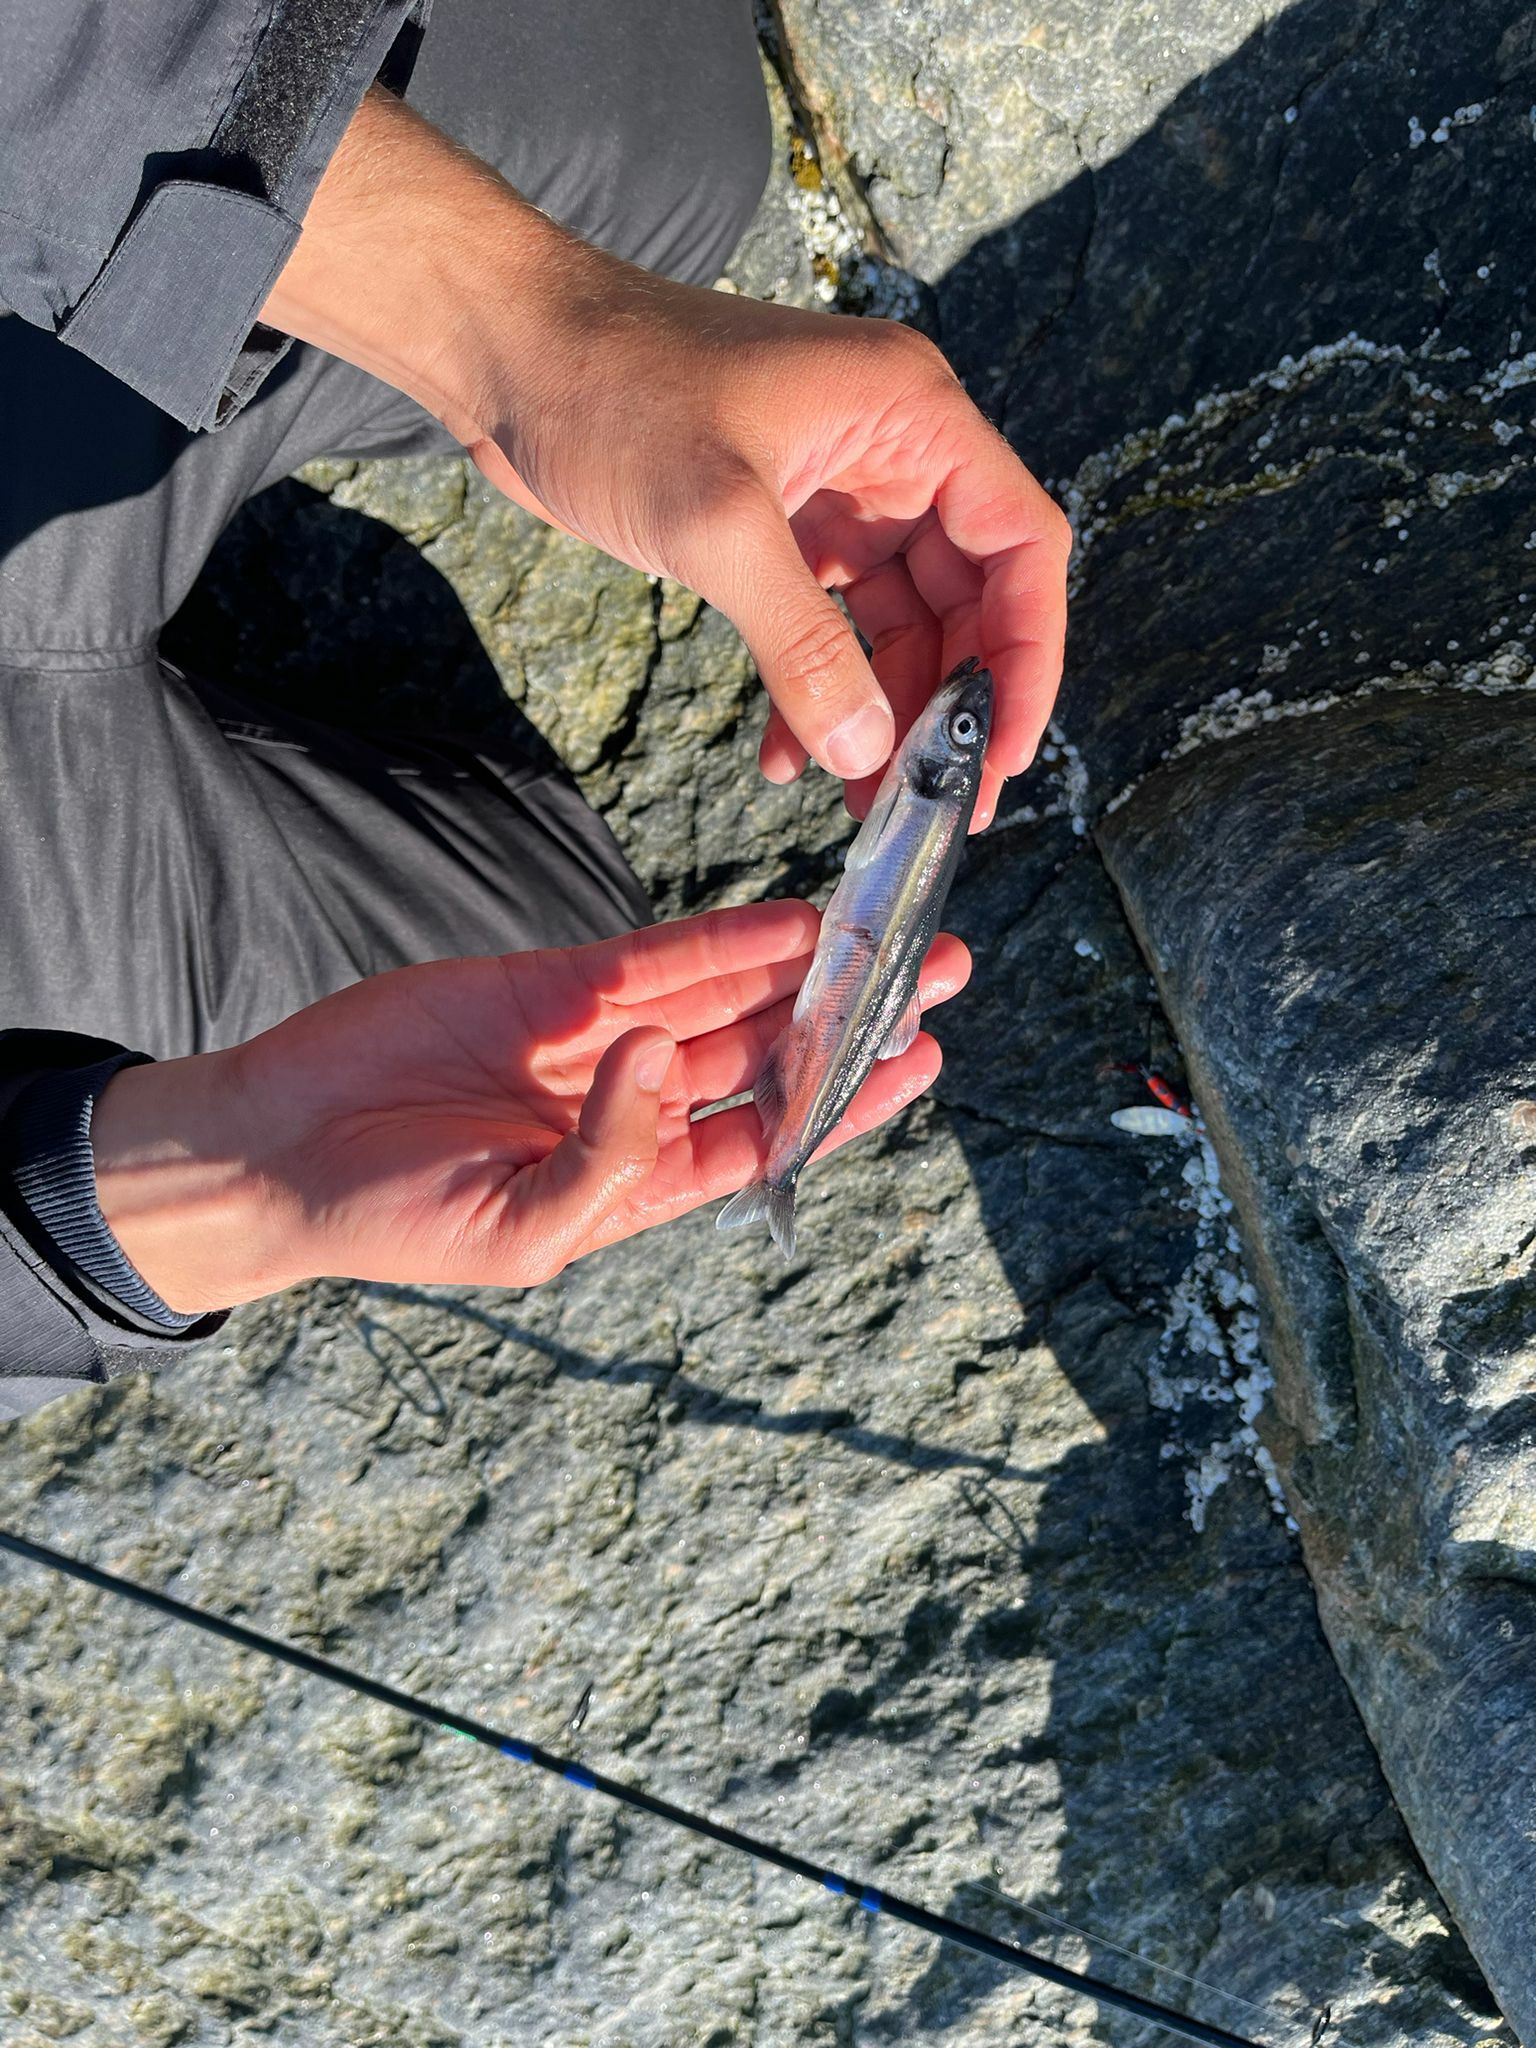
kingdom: Animalia
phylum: Chordata
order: Osmeriformes
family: Osmeridae
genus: Mallotus
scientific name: Mallotus villosus
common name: Capelin
